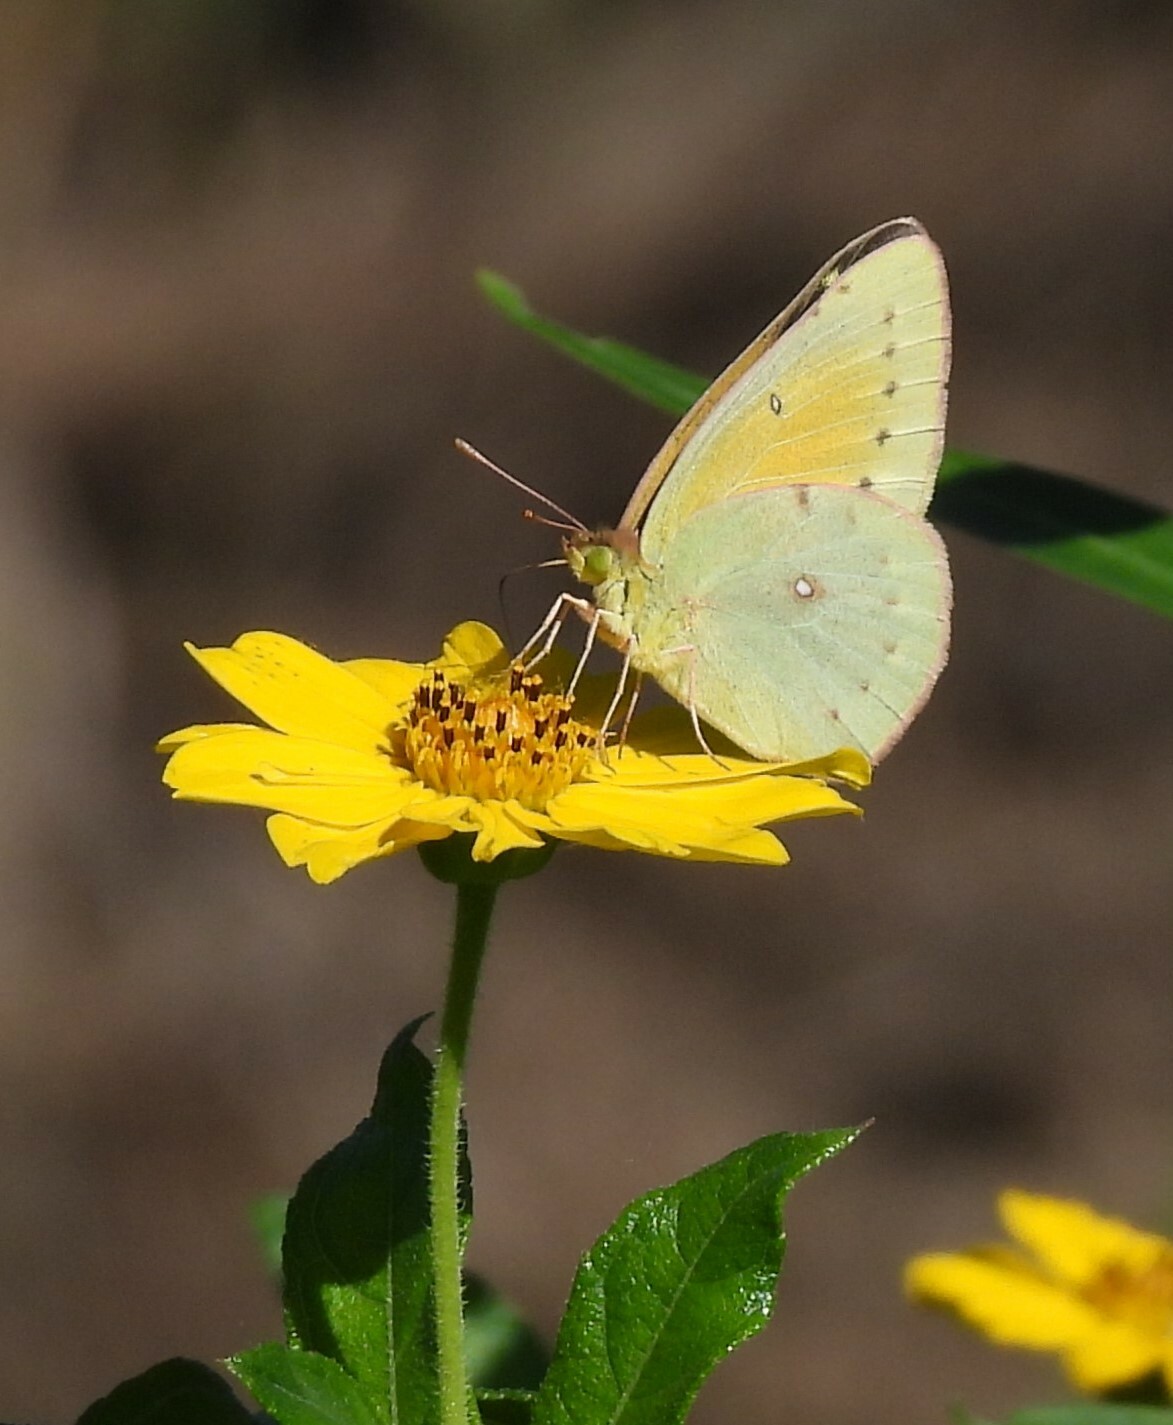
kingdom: Animalia
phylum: Arthropoda
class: Insecta
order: Lepidoptera
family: Pieridae
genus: Colias
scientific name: Colias lesbia
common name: Lesbia clouded yellow
